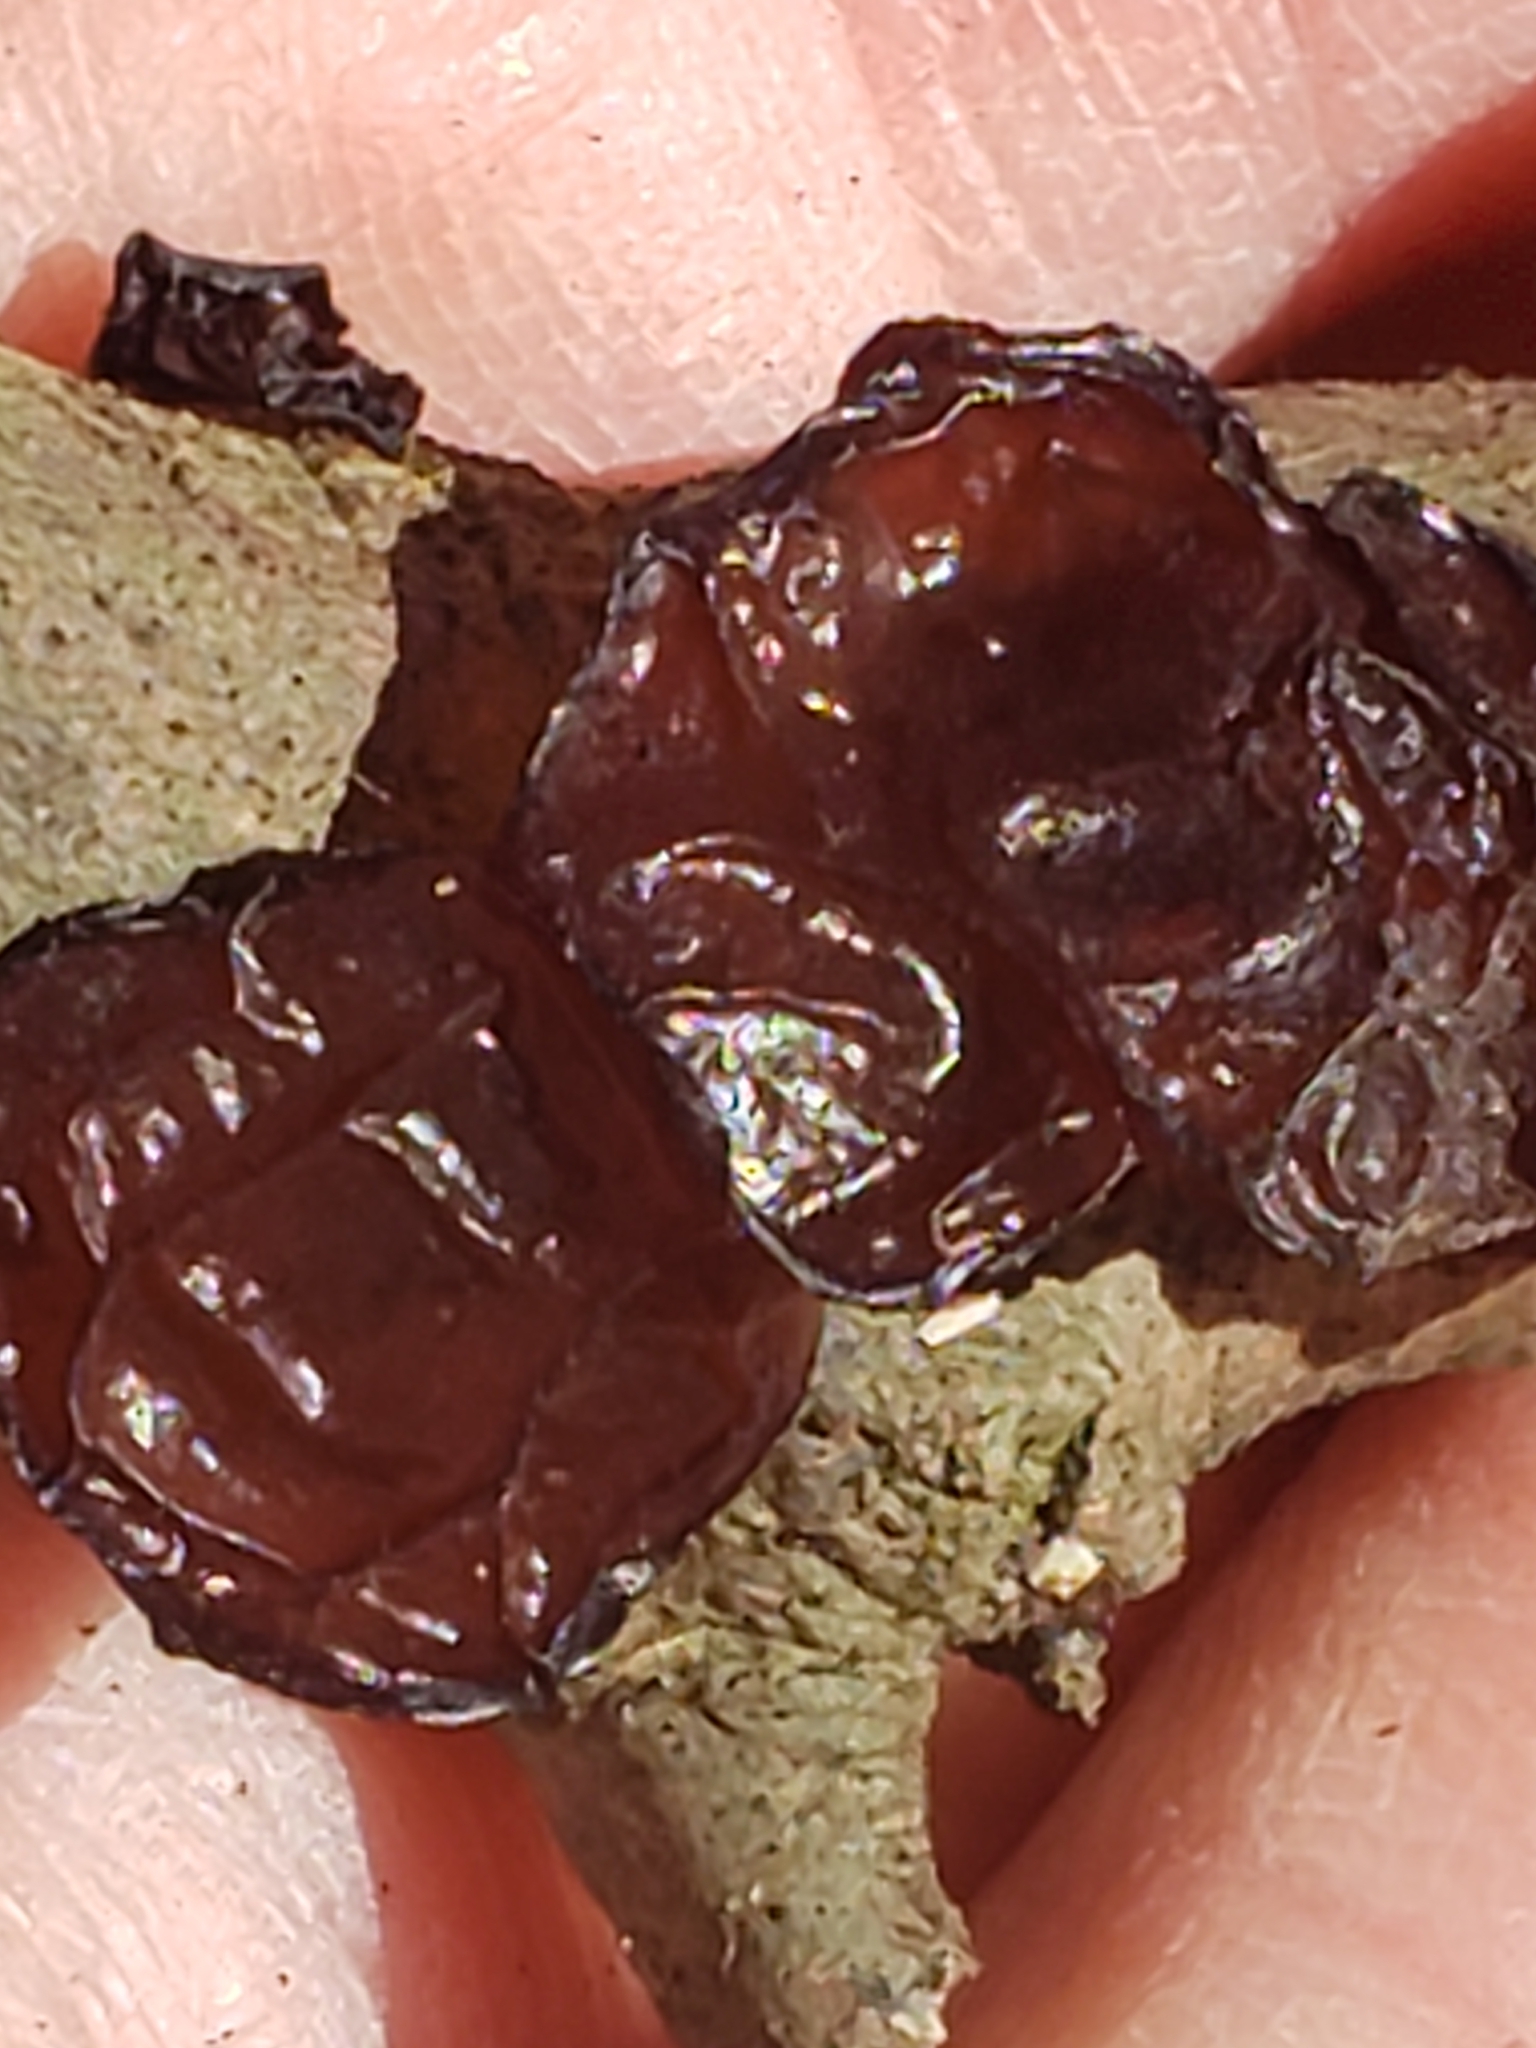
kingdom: Fungi
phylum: Basidiomycota
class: Agaricomycetes
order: Auriculariales
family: Auriculariaceae
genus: Exidia
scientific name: Exidia
